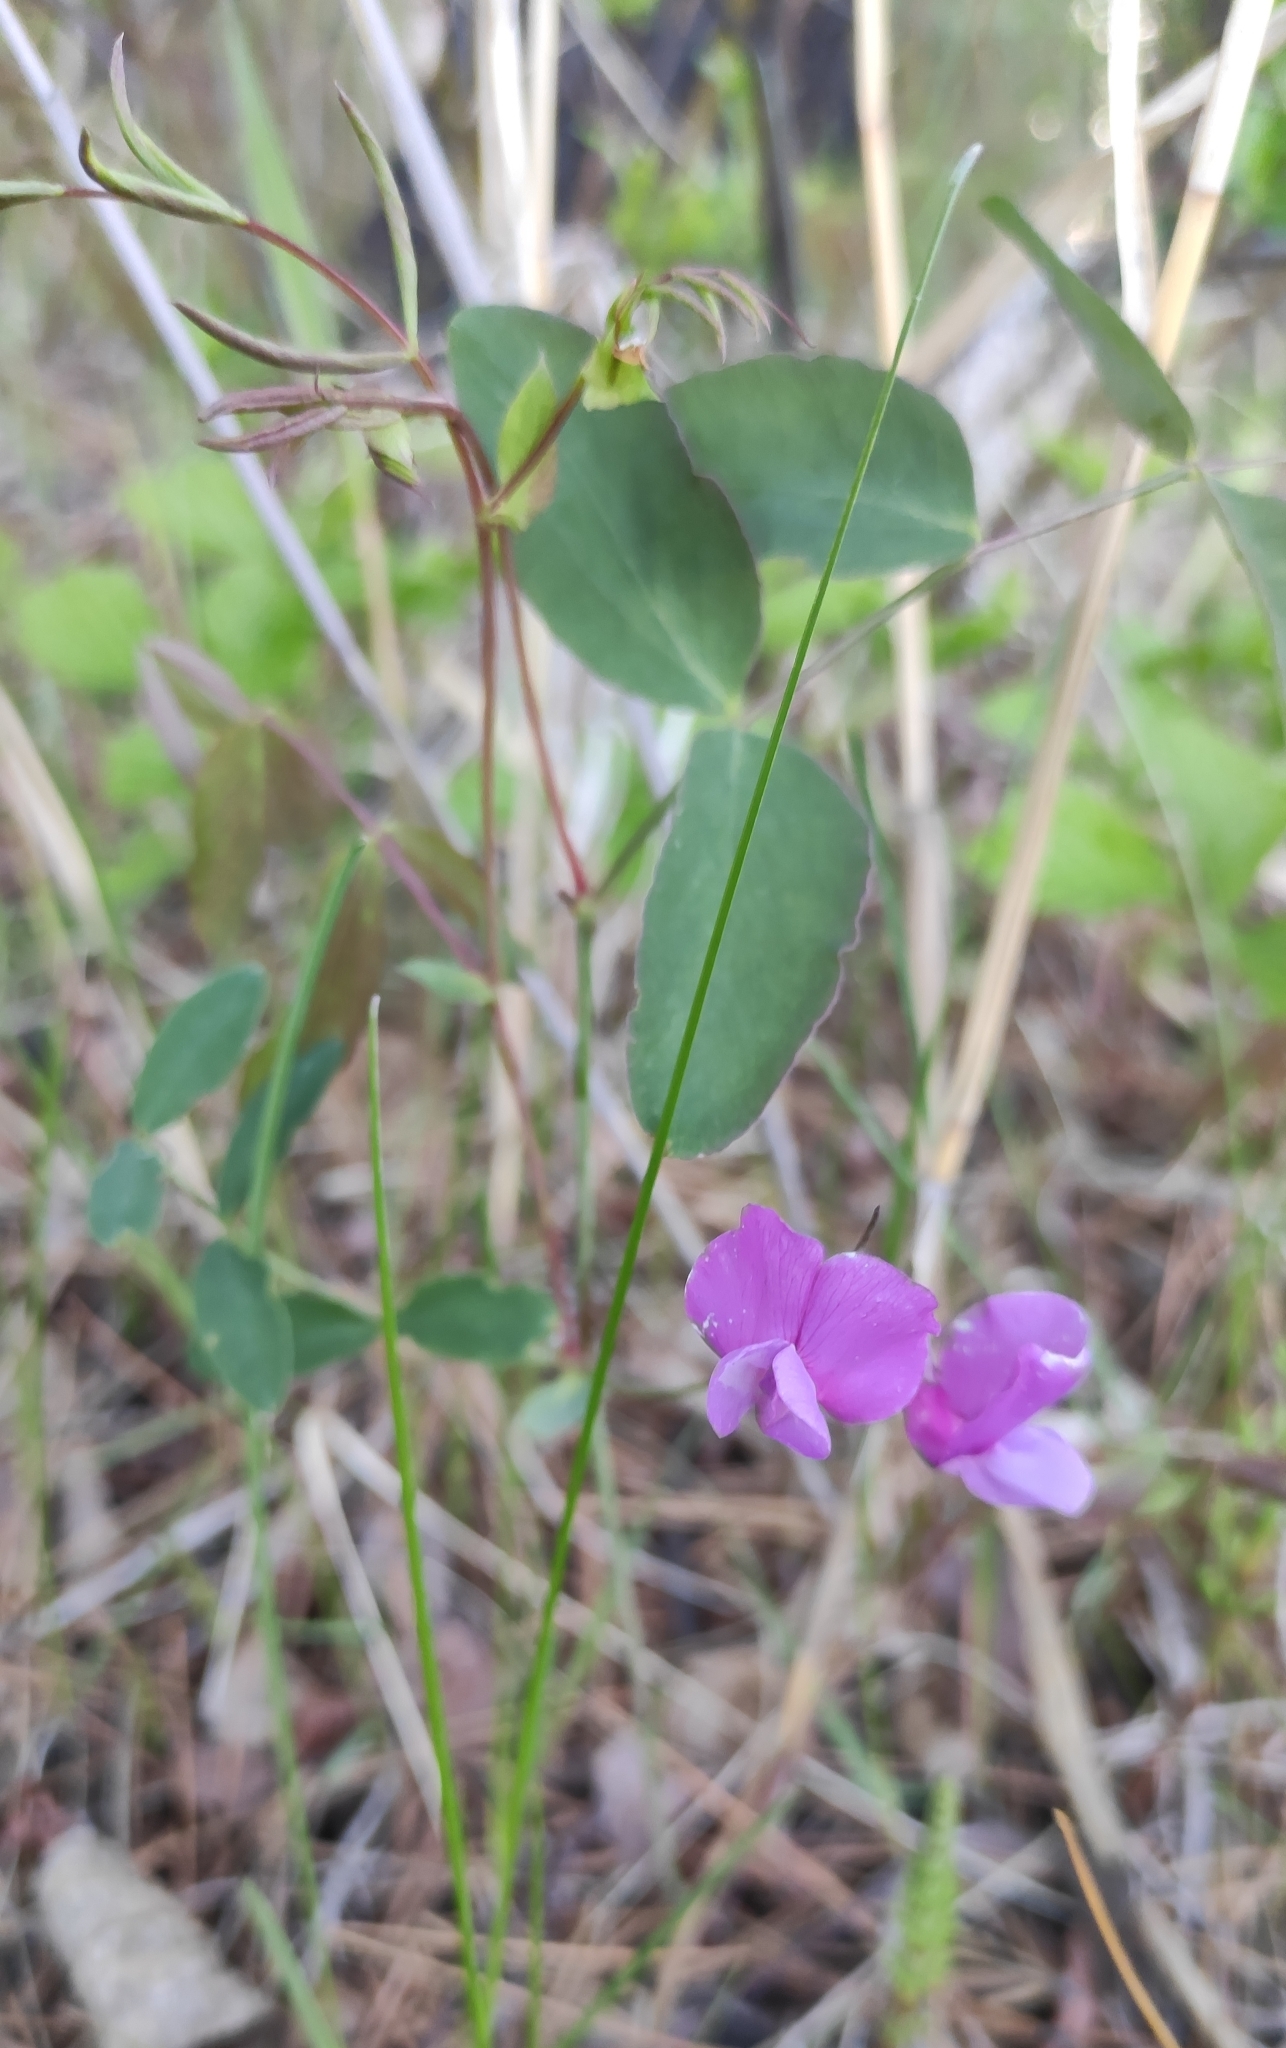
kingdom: Plantae
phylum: Tracheophyta
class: Magnoliopsida
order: Fabales
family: Fabaceae
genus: Lathyrus
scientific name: Lathyrus humilis
